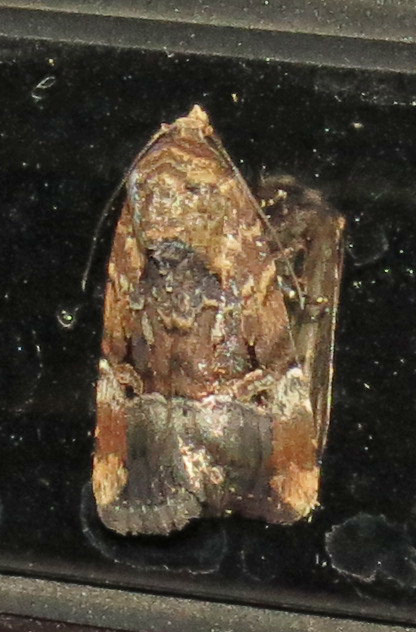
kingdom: Animalia
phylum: Arthropoda
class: Insecta
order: Lepidoptera
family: Noctuidae
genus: Elaphria
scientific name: Elaphria chalcedonia
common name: Chalcedony midget
